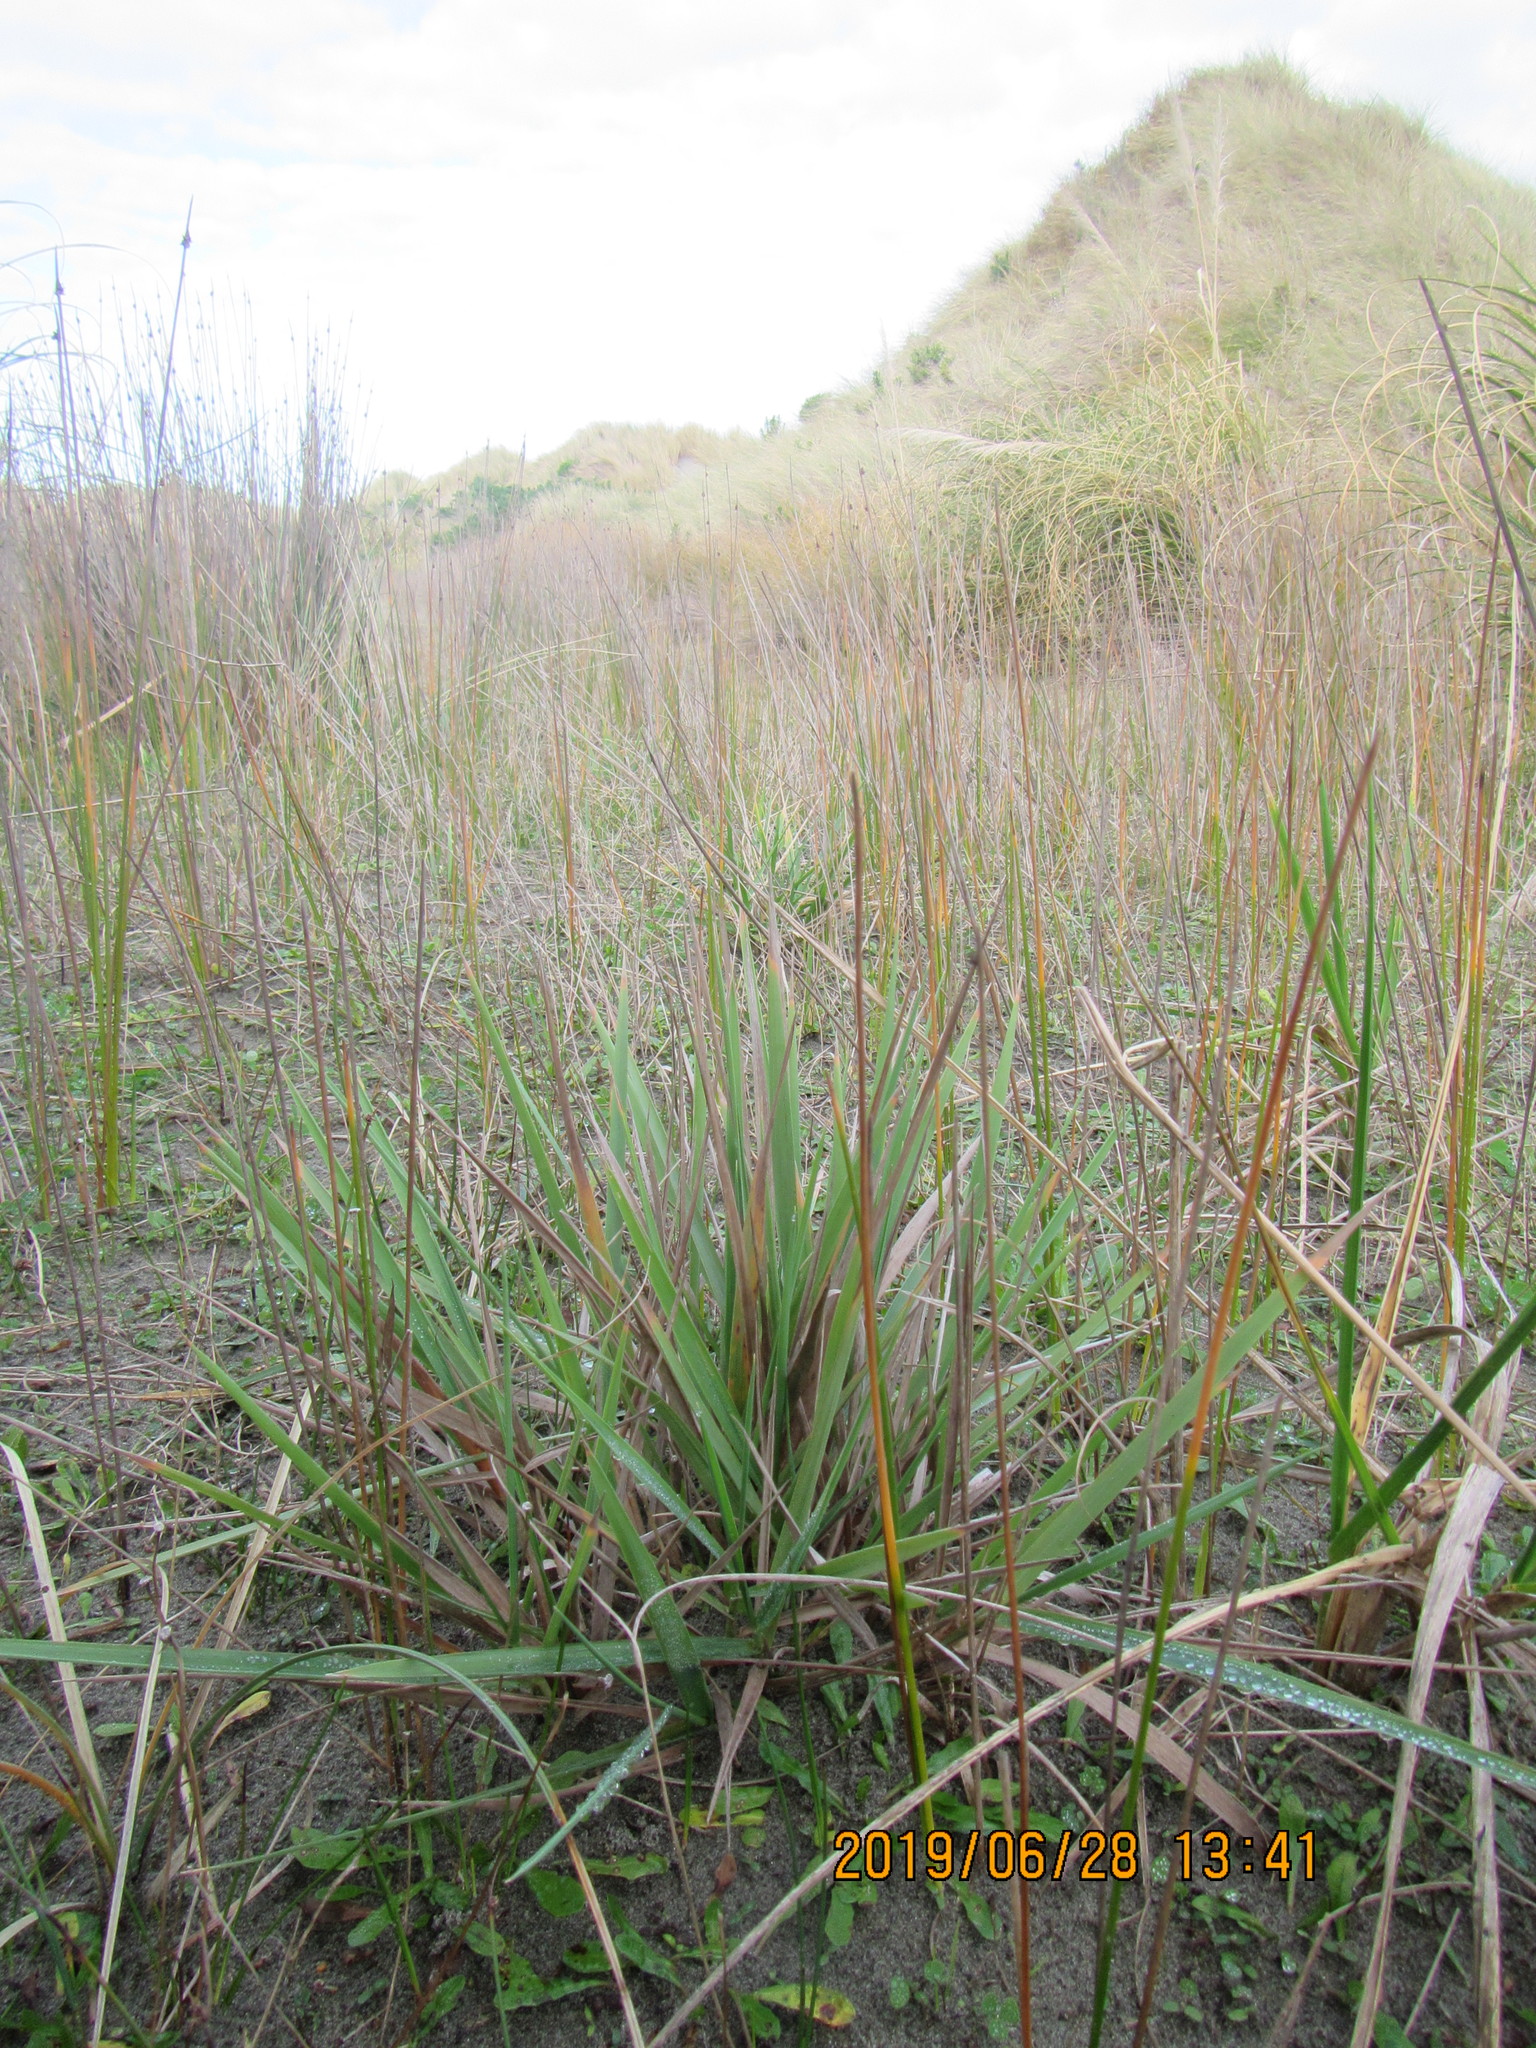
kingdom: Plantae
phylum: Tracheophyta
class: Liliopsida
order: Poales
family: Poaceae
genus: Lachnagrostis
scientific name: Lachnagrostis billardierei
